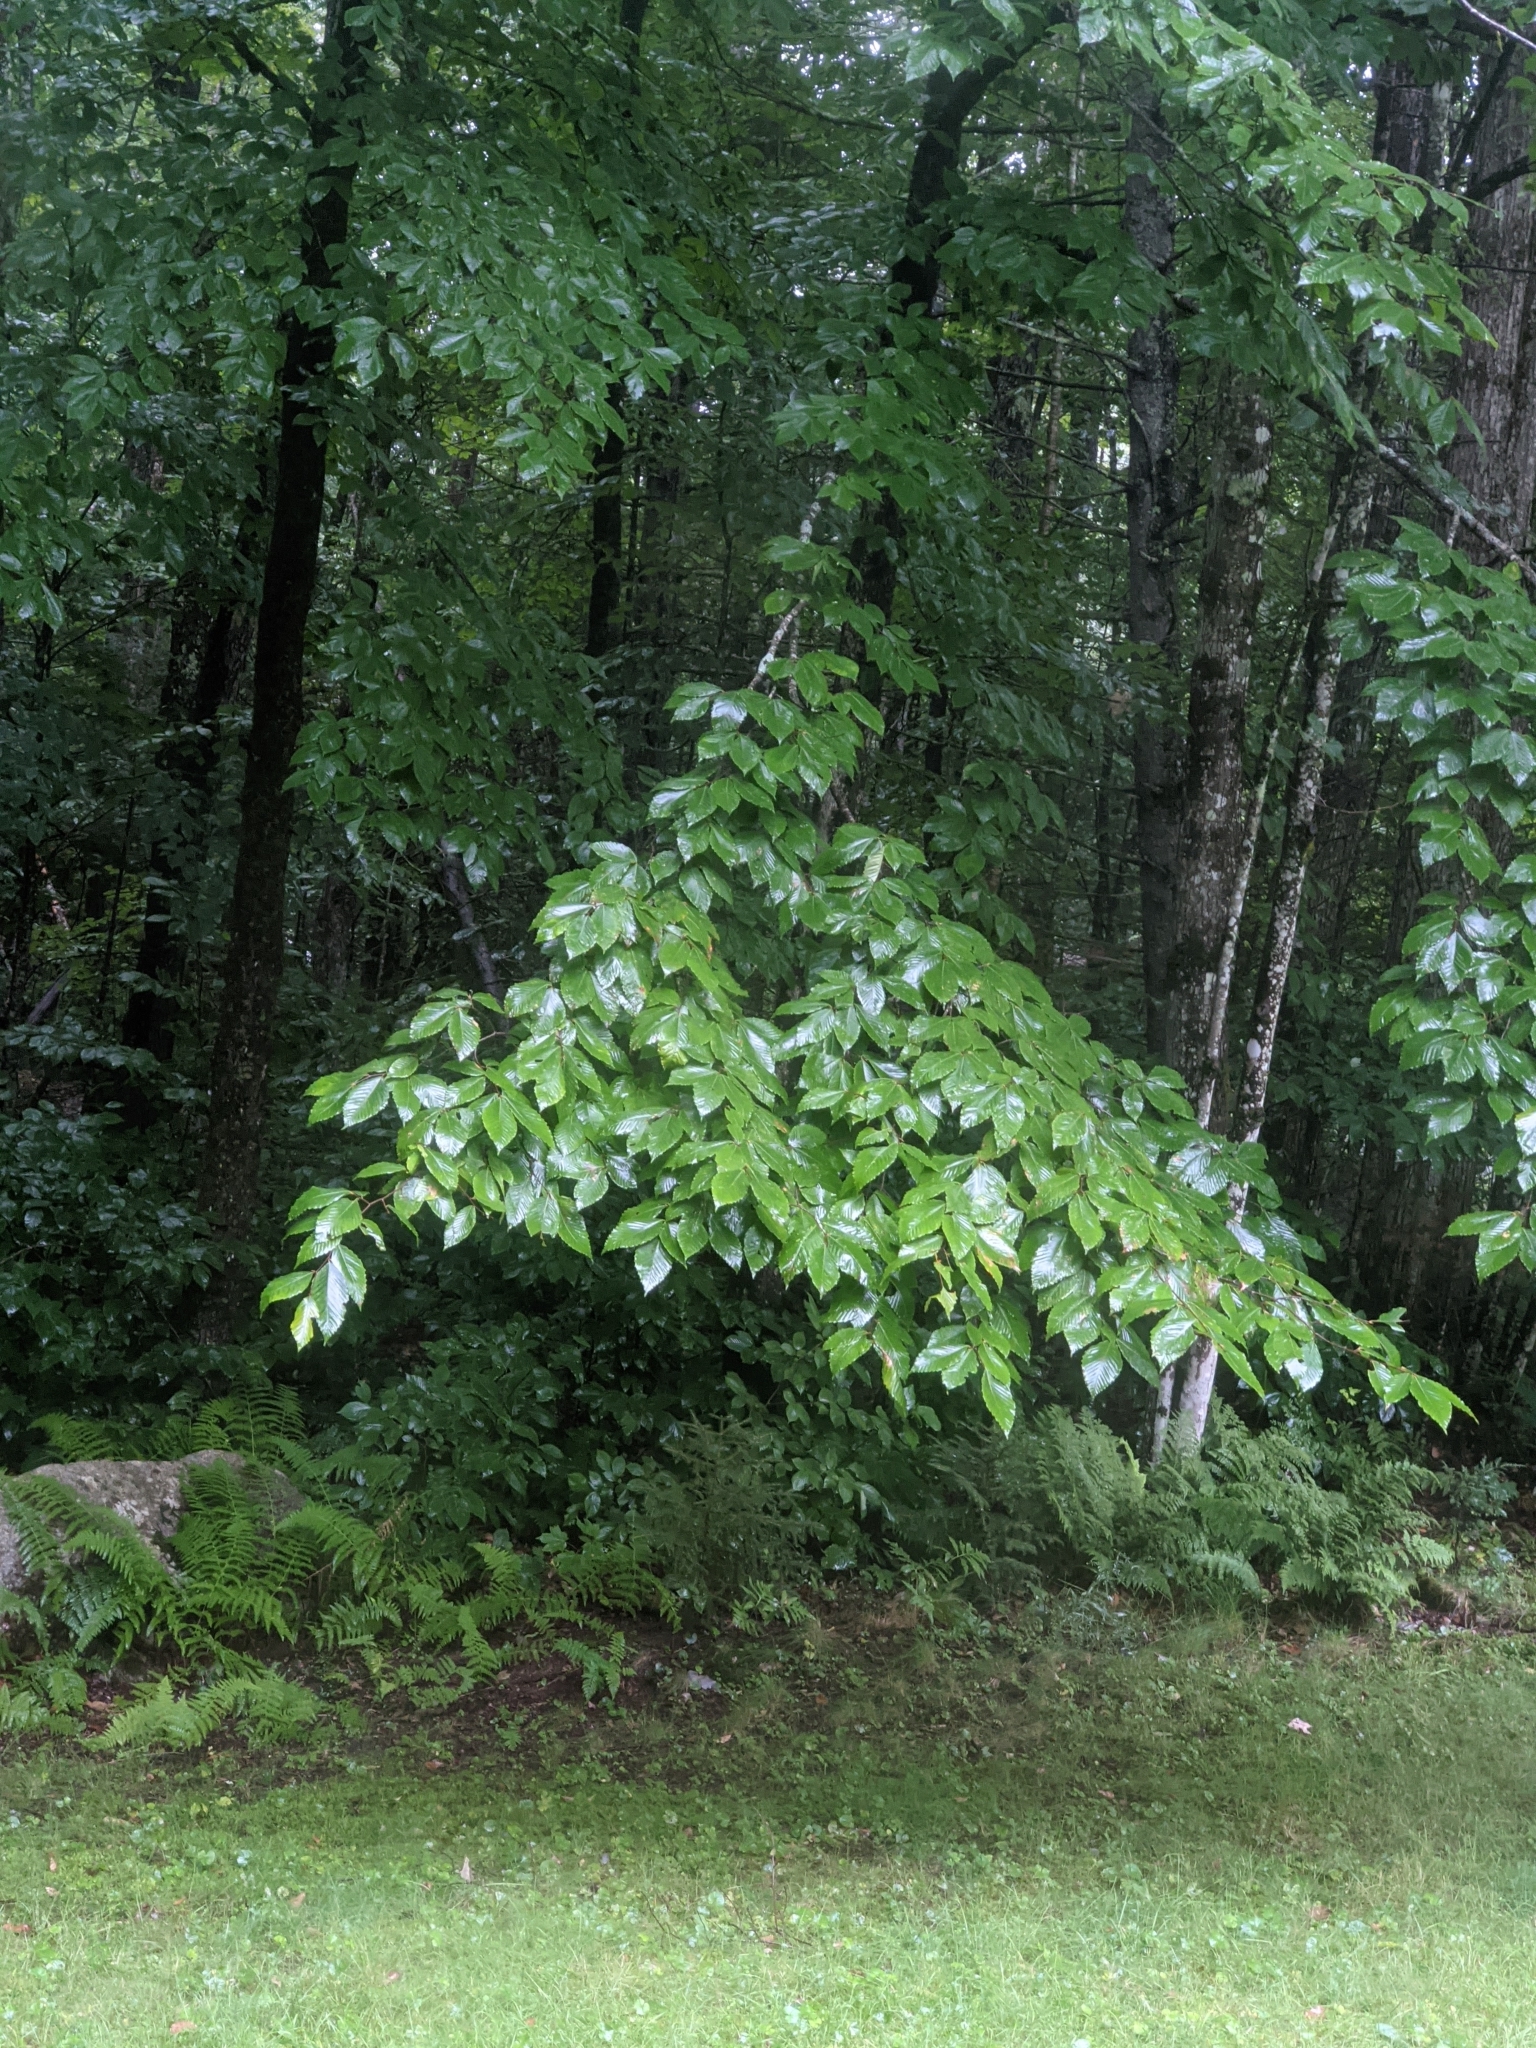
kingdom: Plantae
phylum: Tracheophyta
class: Magnoliopsida
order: Fagales
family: Fagaceae
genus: Fagus
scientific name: Fagus grandifolia
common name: American beech
